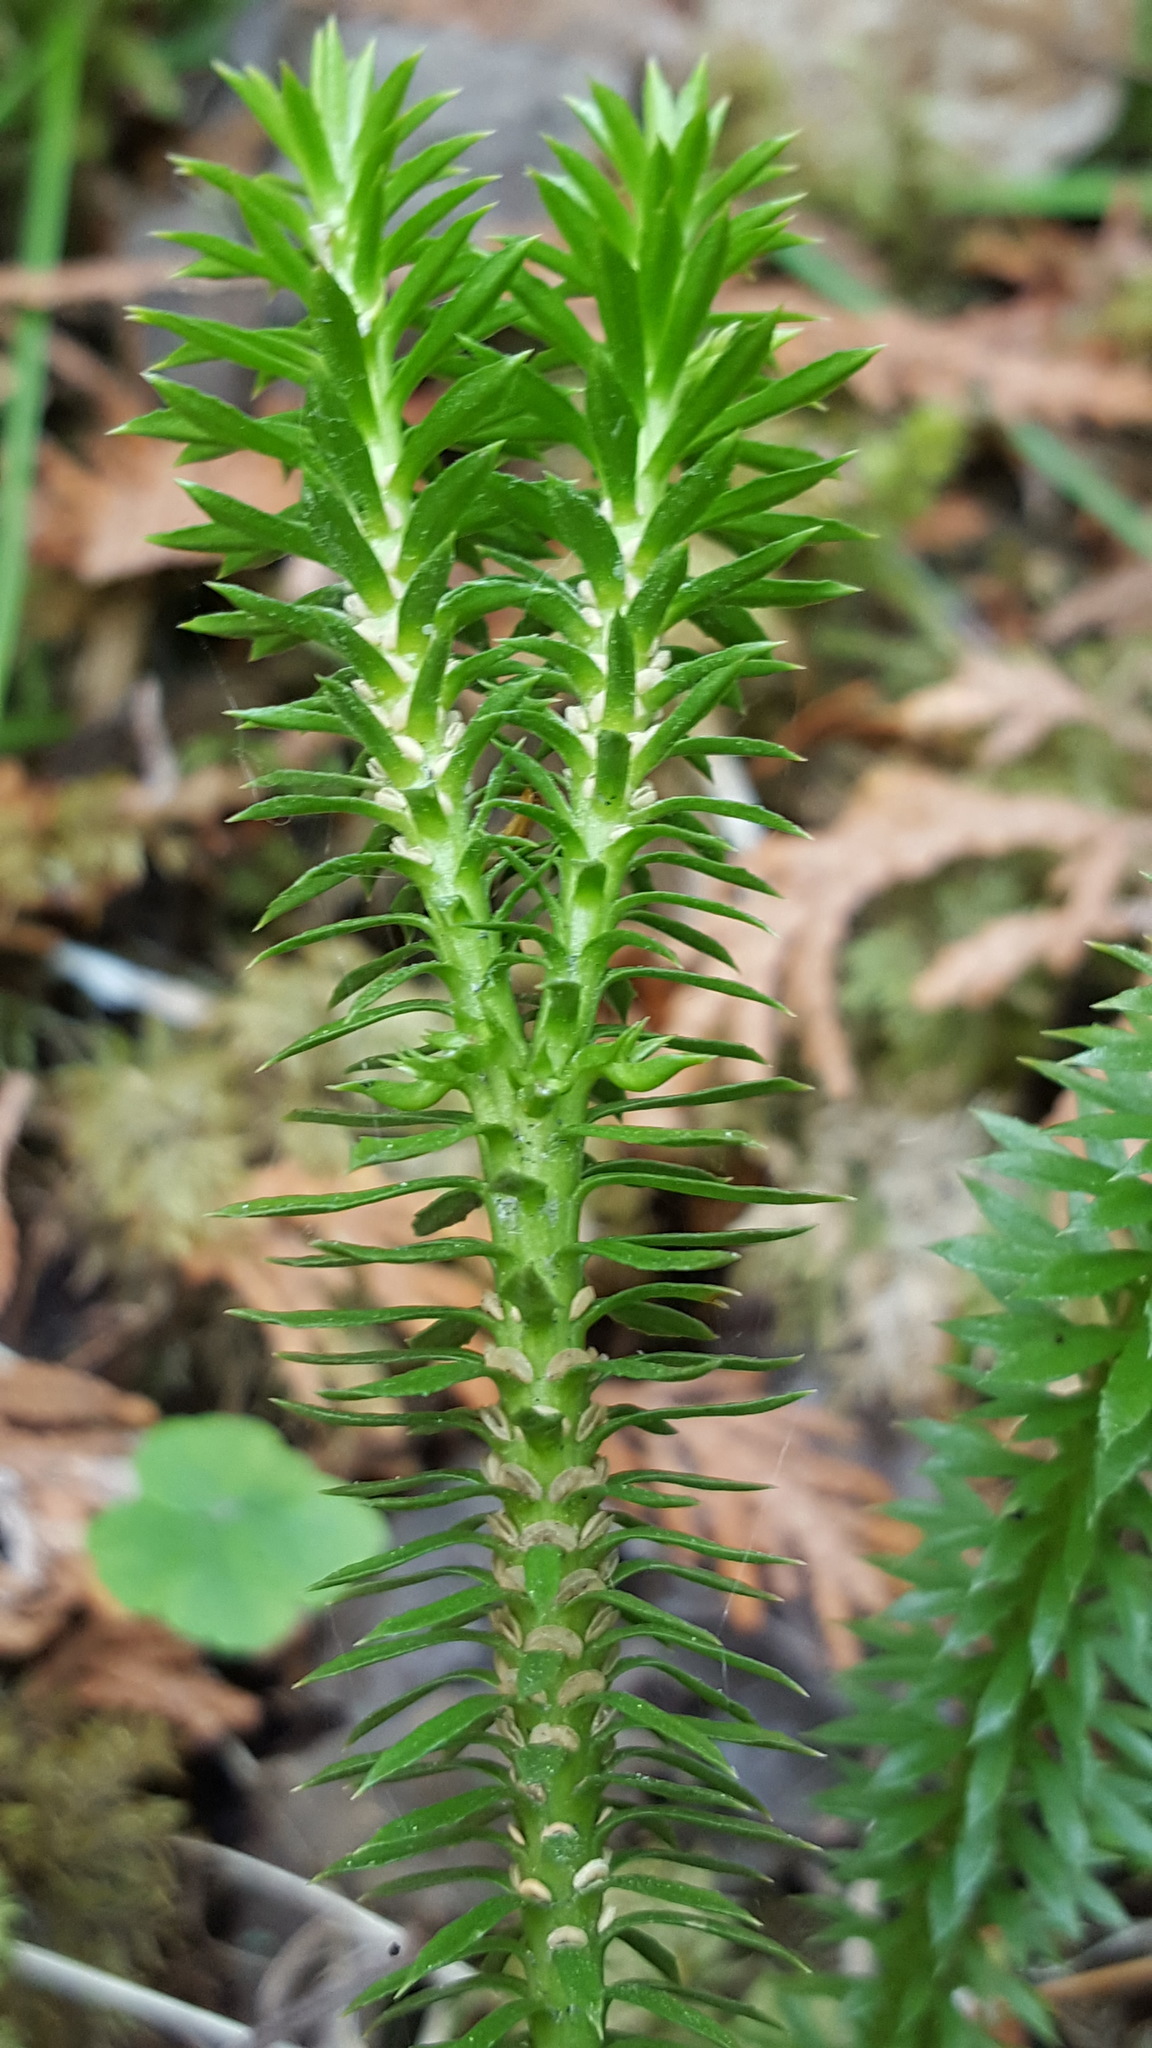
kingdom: Plantae
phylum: Tracheophyta
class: Lycopodiopsida
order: Lycopodiales
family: Lycopodiaceae
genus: Huperzia
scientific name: Huperzia lucidula
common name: Shining clubmoss
